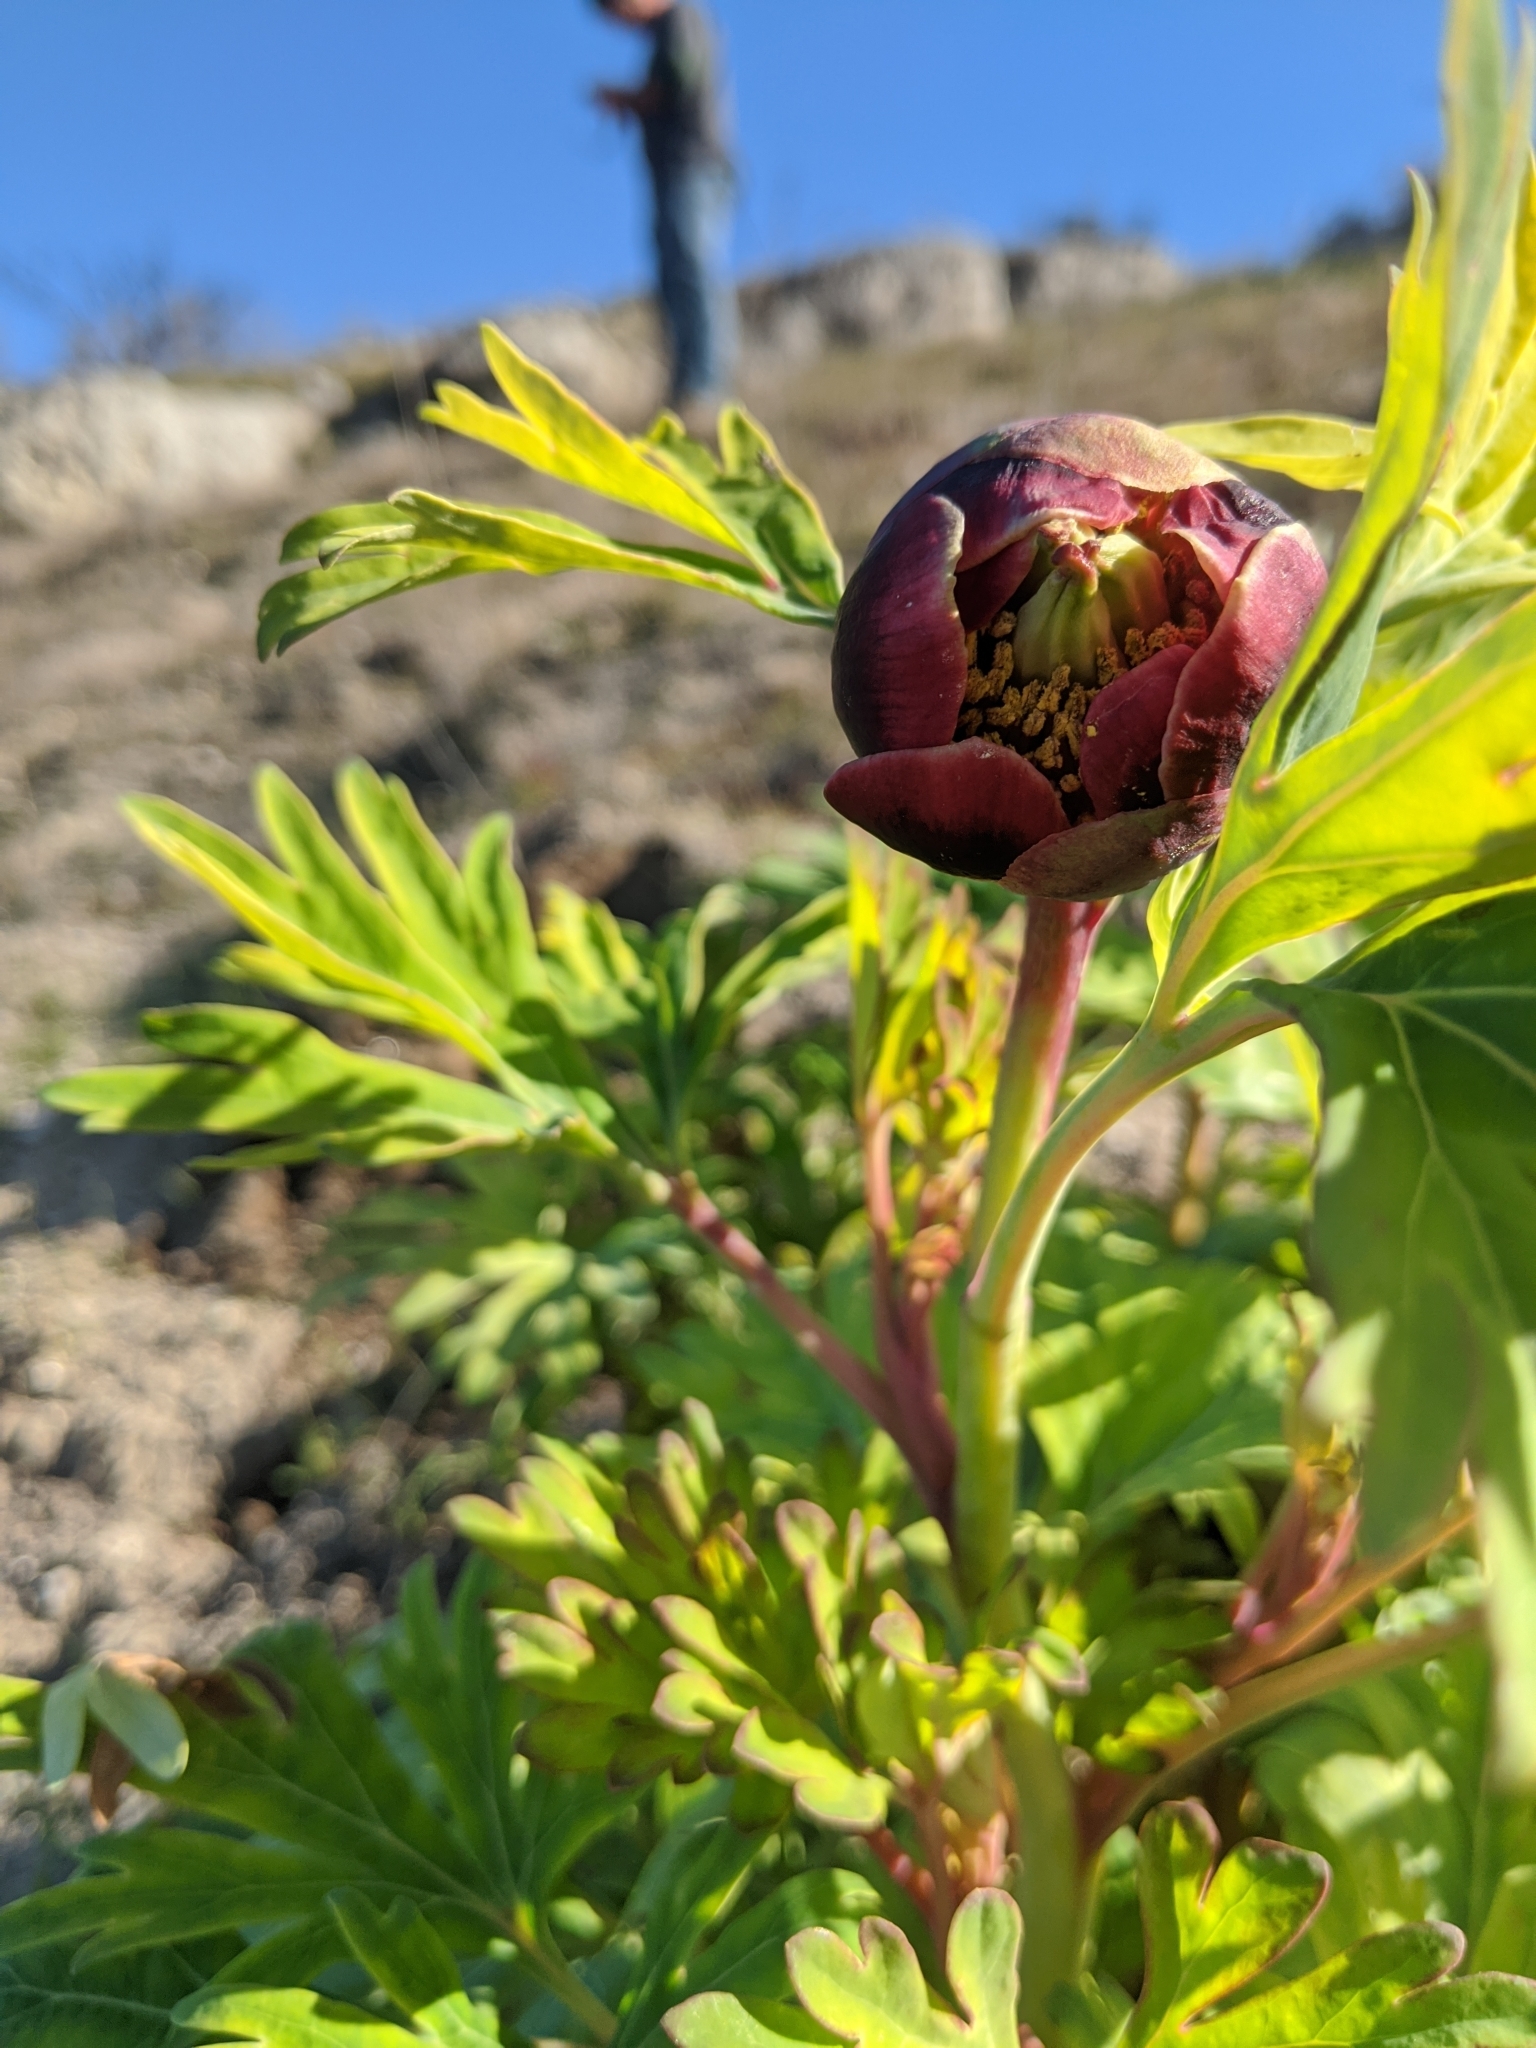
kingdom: Plantae
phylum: Tracheophyta
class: Magnoliopsida
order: Saxifragales
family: Paeoniaceae
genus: Paeonia
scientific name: Paeonia californica
